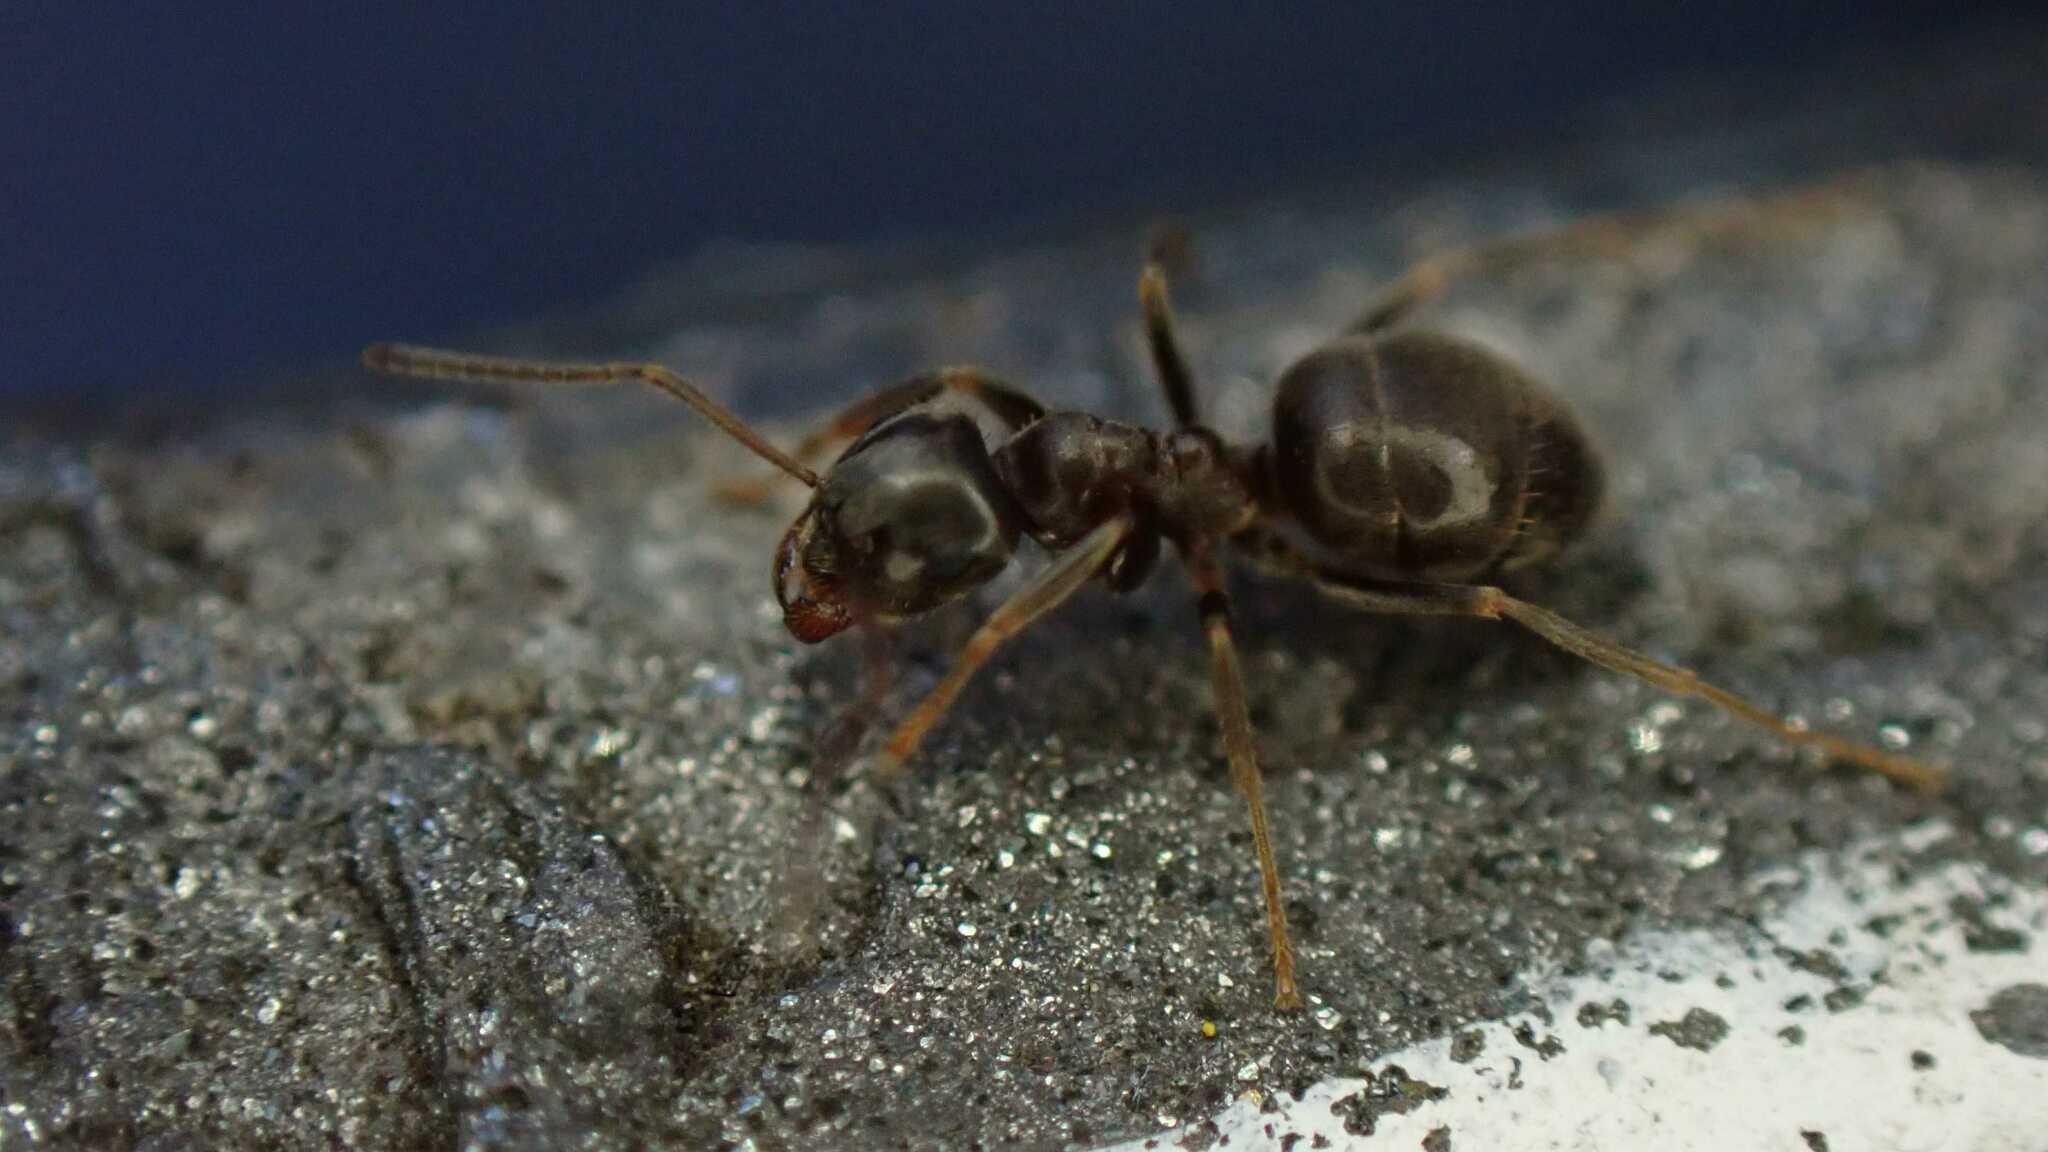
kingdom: Animalia
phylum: Arthropoda
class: Insecta
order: Hymenoptera
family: Formicidae
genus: Lasius
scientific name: Lasius
